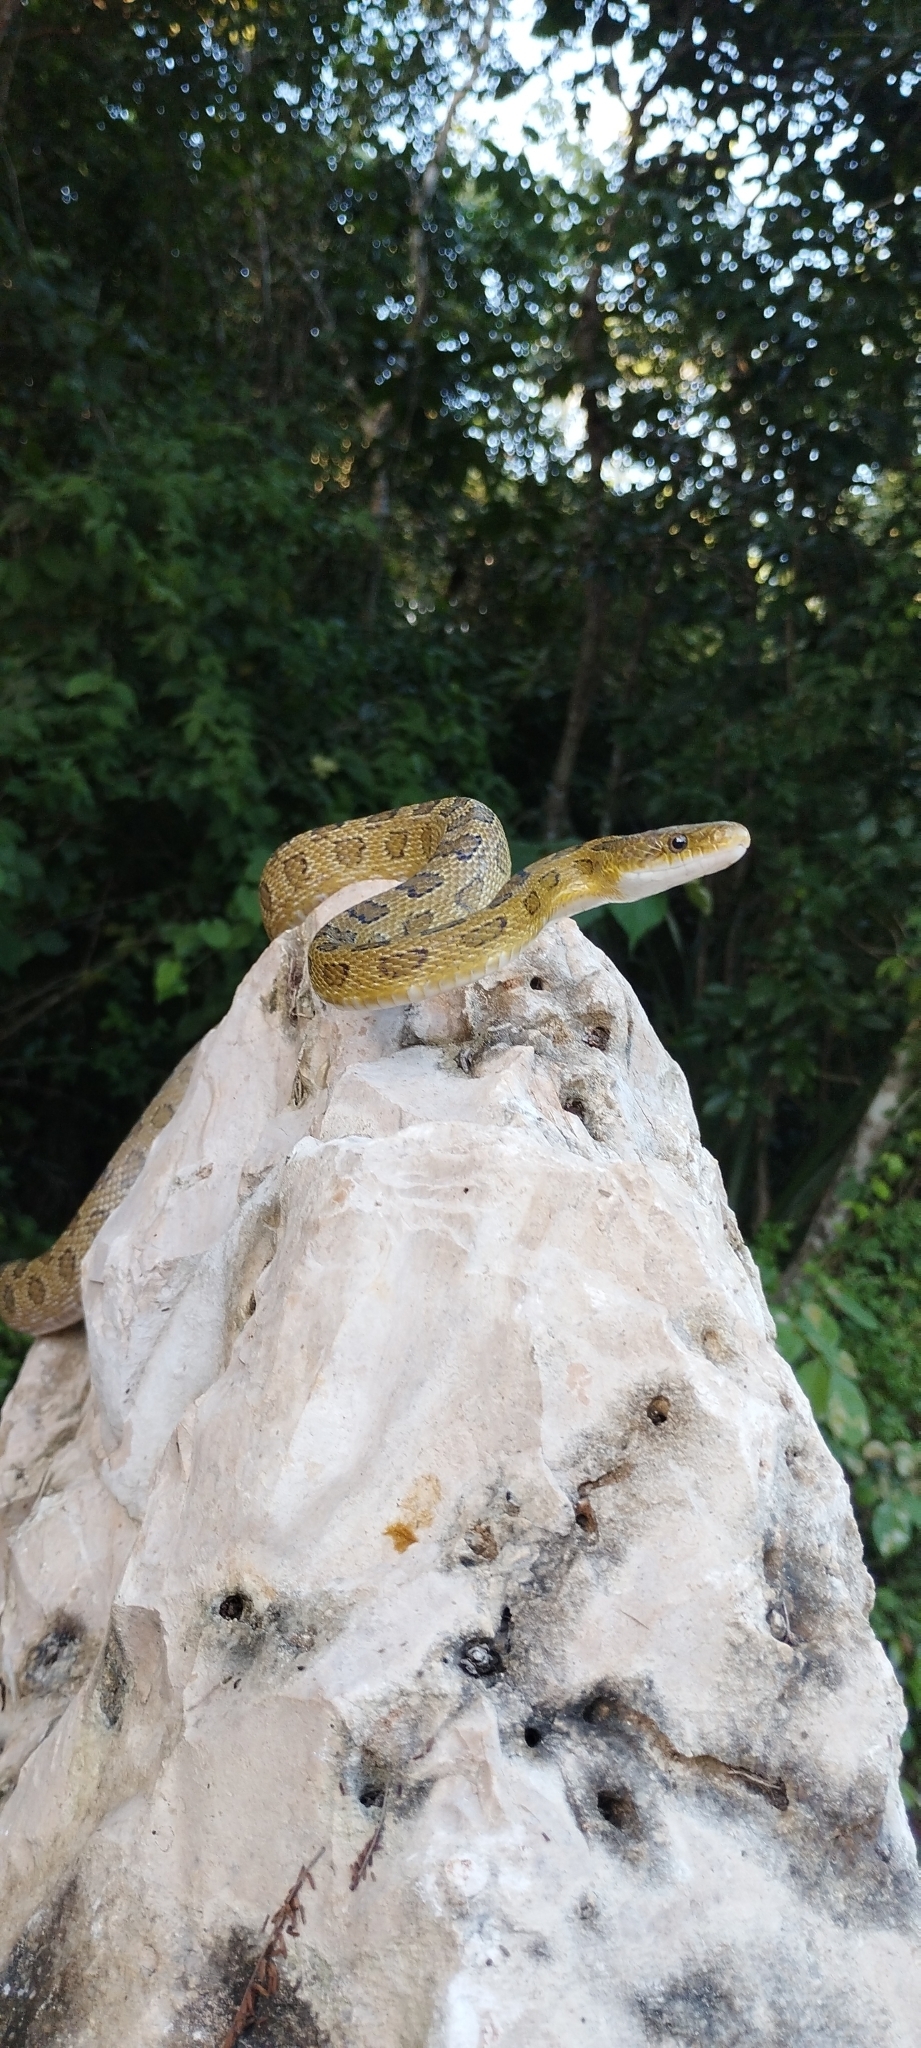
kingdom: Animalia
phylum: Chordata
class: Squamata
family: Colubridae
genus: Senticolis
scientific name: Senticolis triaspis
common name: Green rat snake
